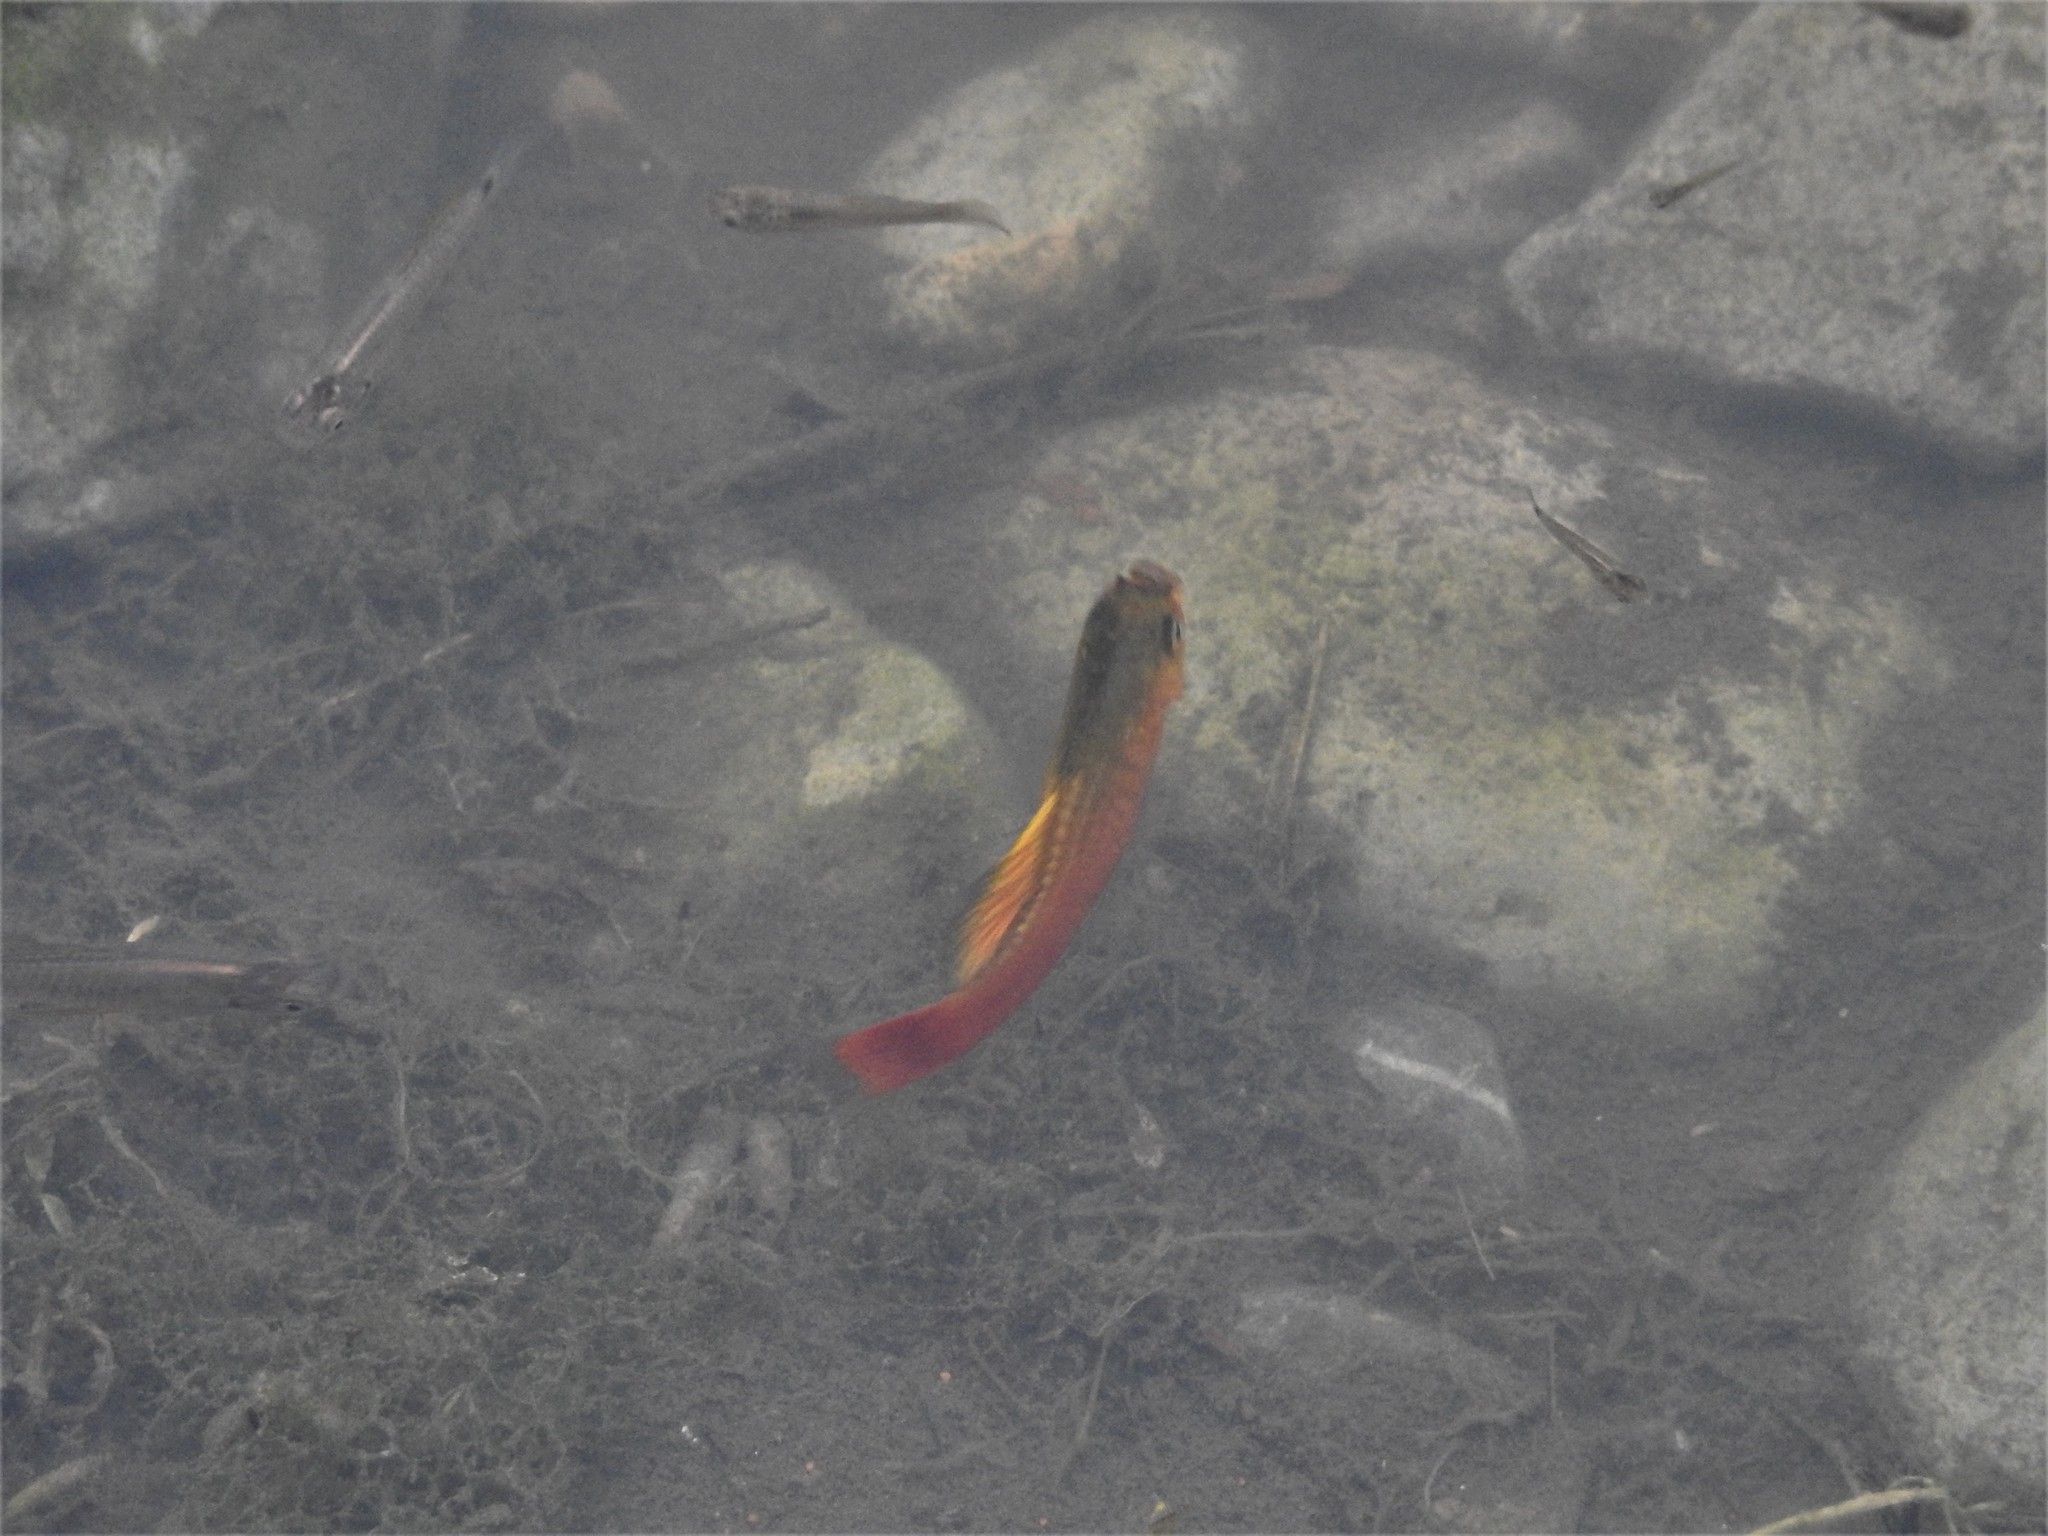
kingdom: Animalia
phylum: Chordata
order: Cyprinodontiformes
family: Poeciliidae
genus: Xiphophorus
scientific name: Xiphophorus variatus
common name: Variable platyfish
